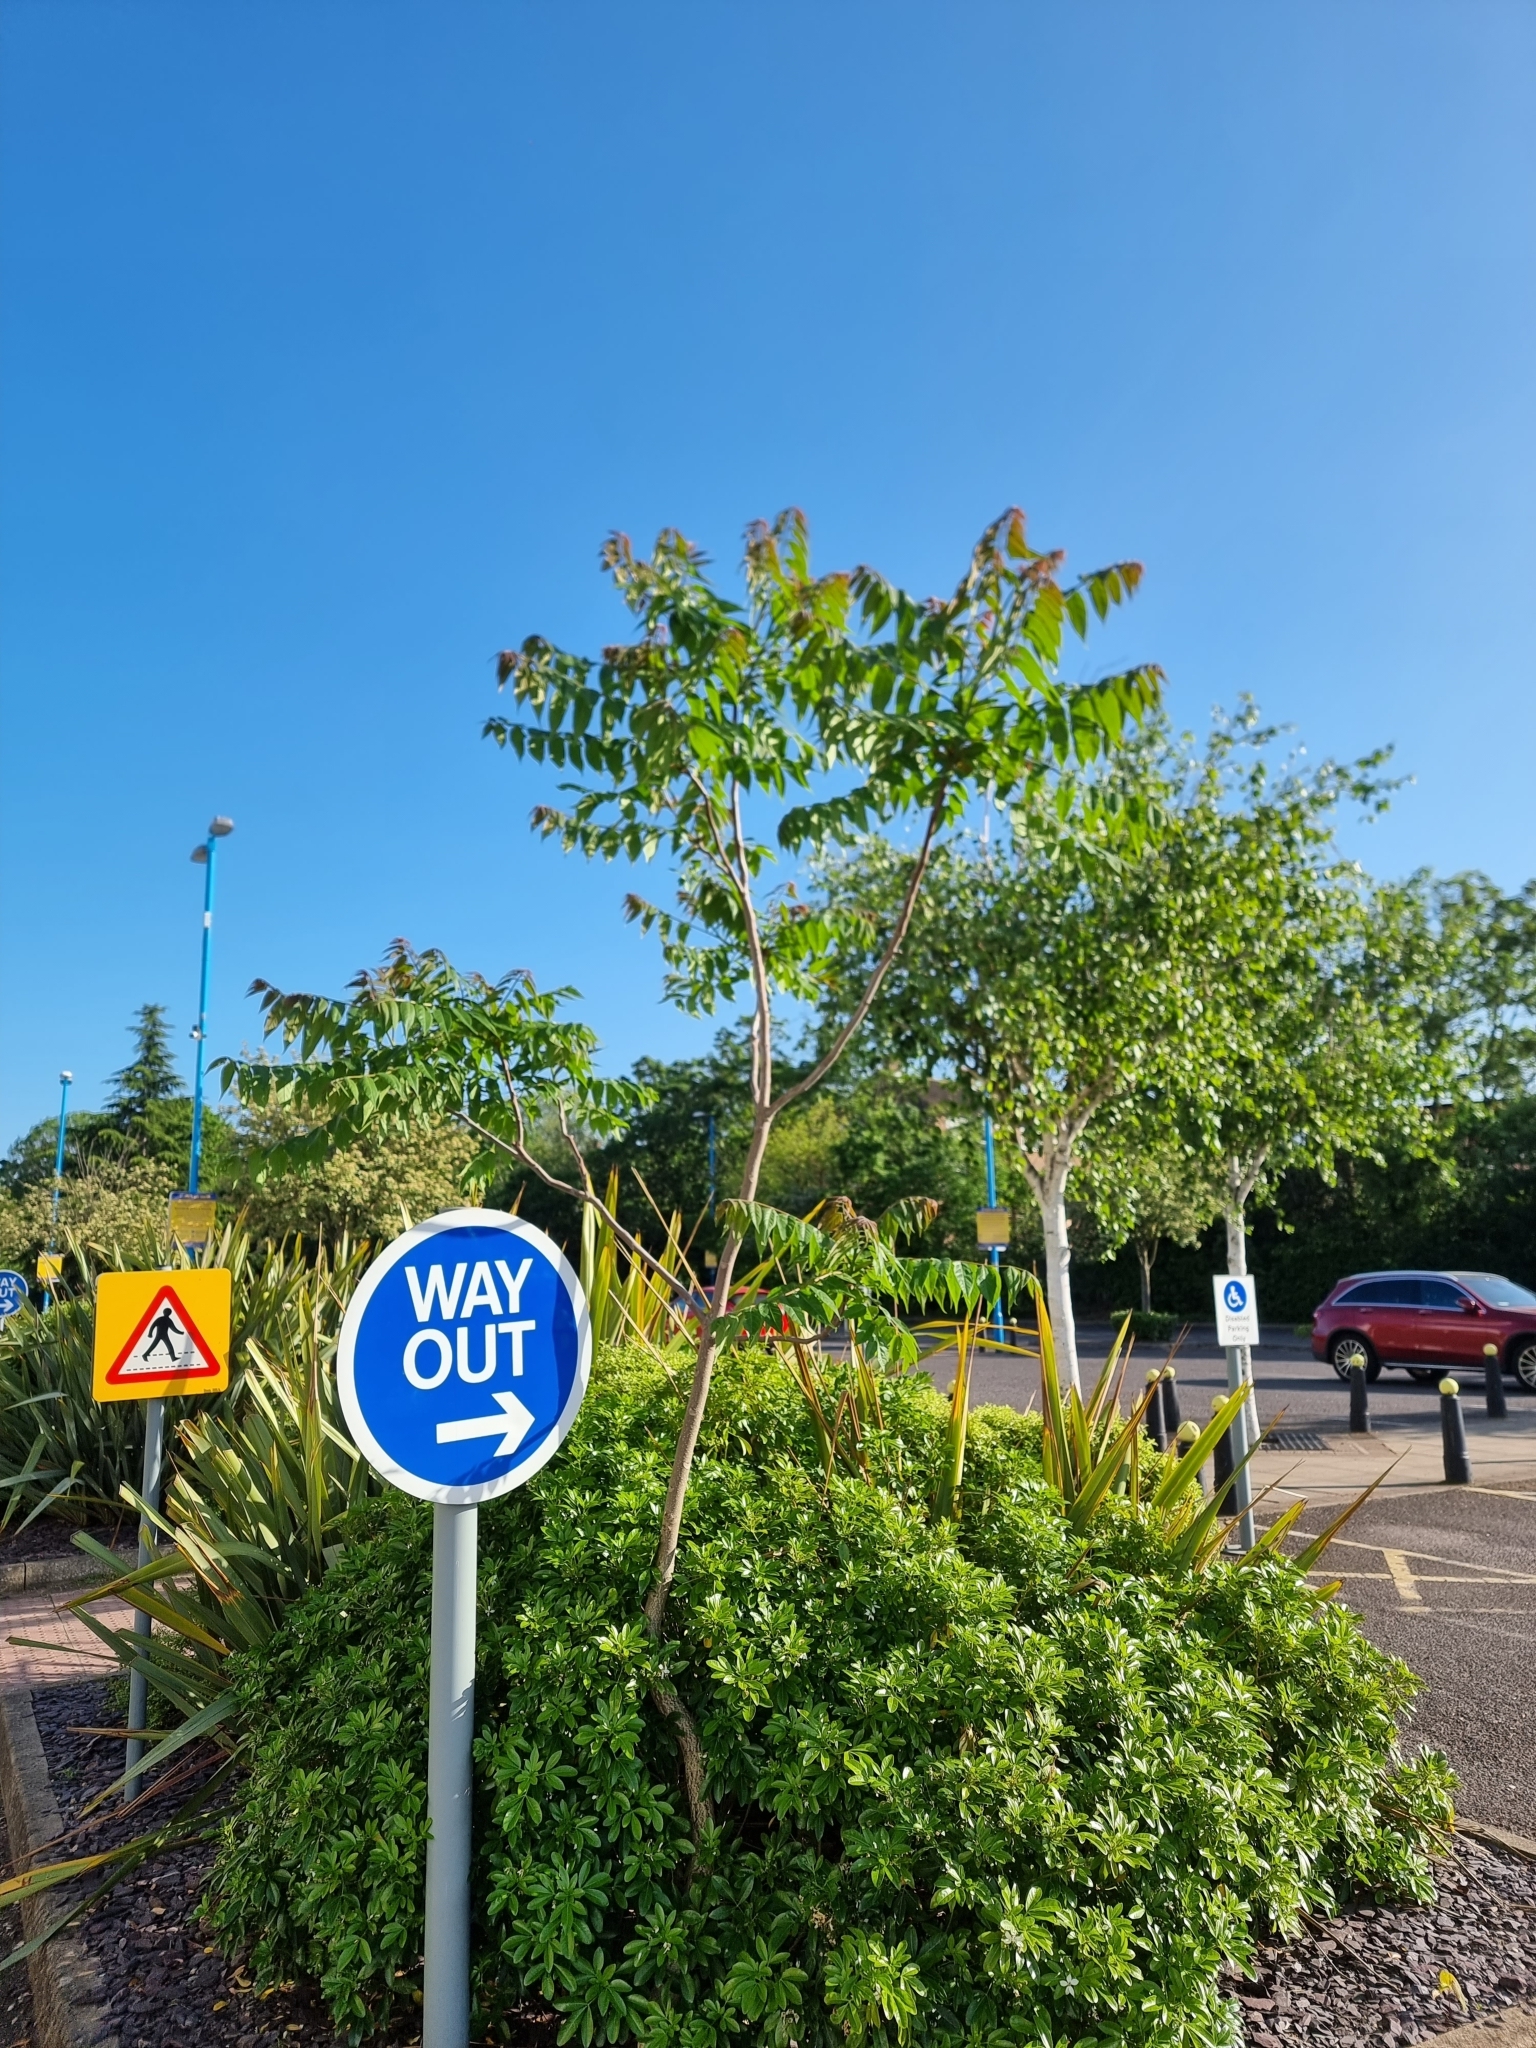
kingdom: Plantae
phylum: Tracheophyta
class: Magnoliopsida
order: Sapindales
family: Simaroubaceae
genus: Ailanthus
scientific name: Ailanthus altissima
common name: Tree-of-heaven
